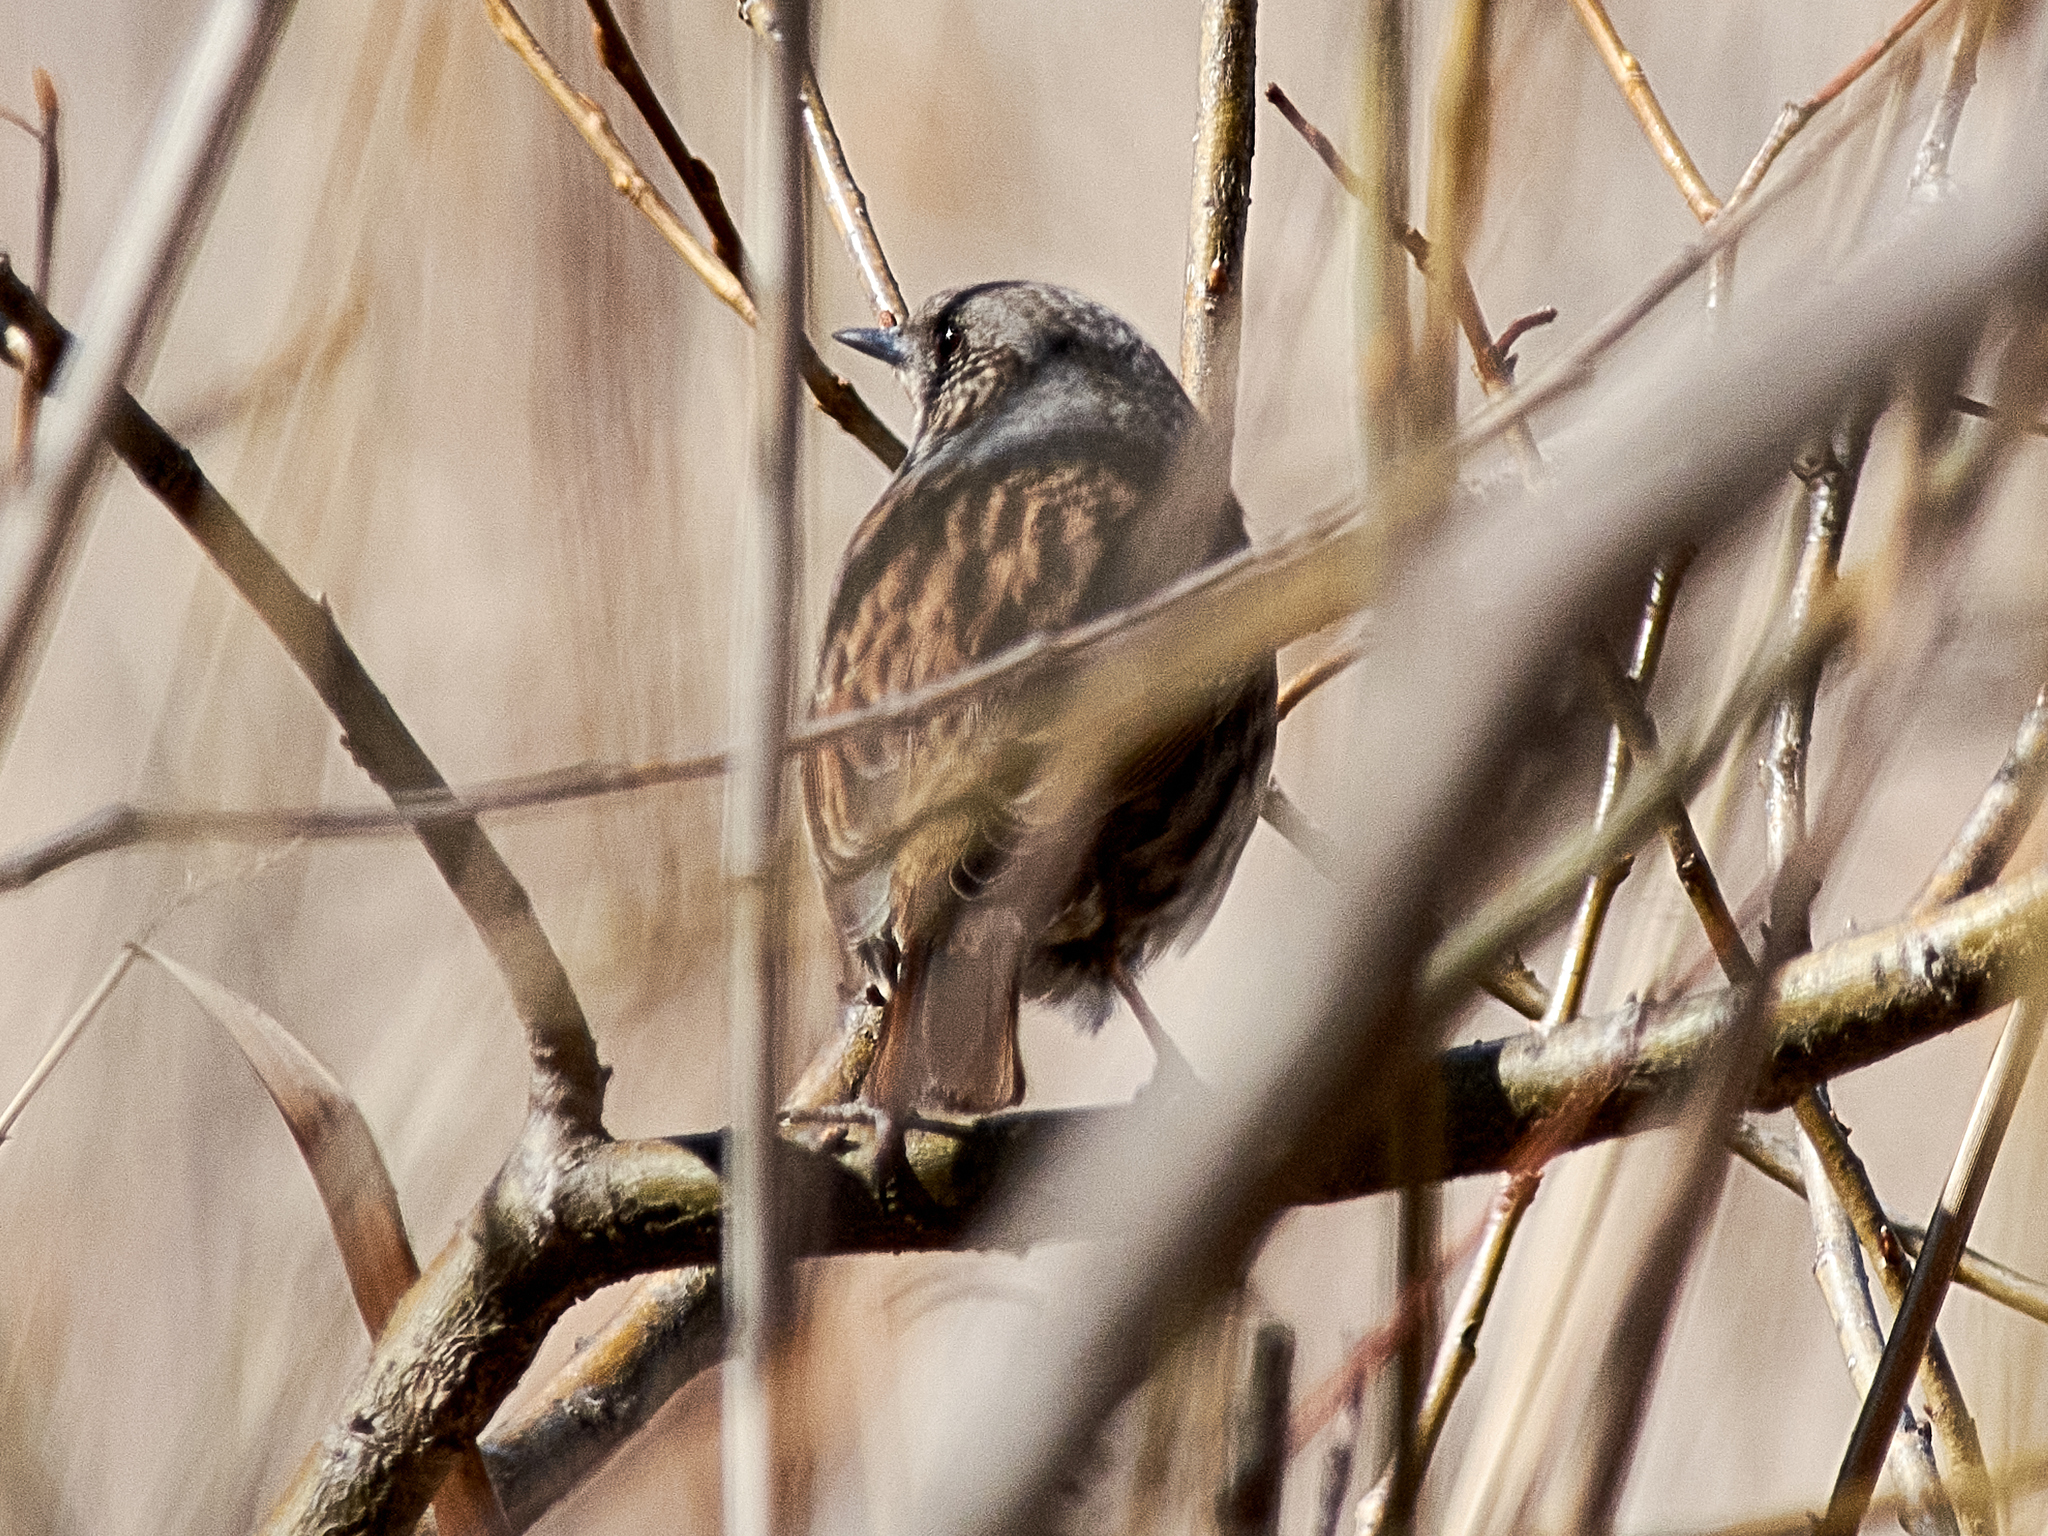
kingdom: Animalia
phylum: Chordata
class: Aves
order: Passeriformes
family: Prunellidae
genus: Prunella
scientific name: Prunella modularis
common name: Dunnock
